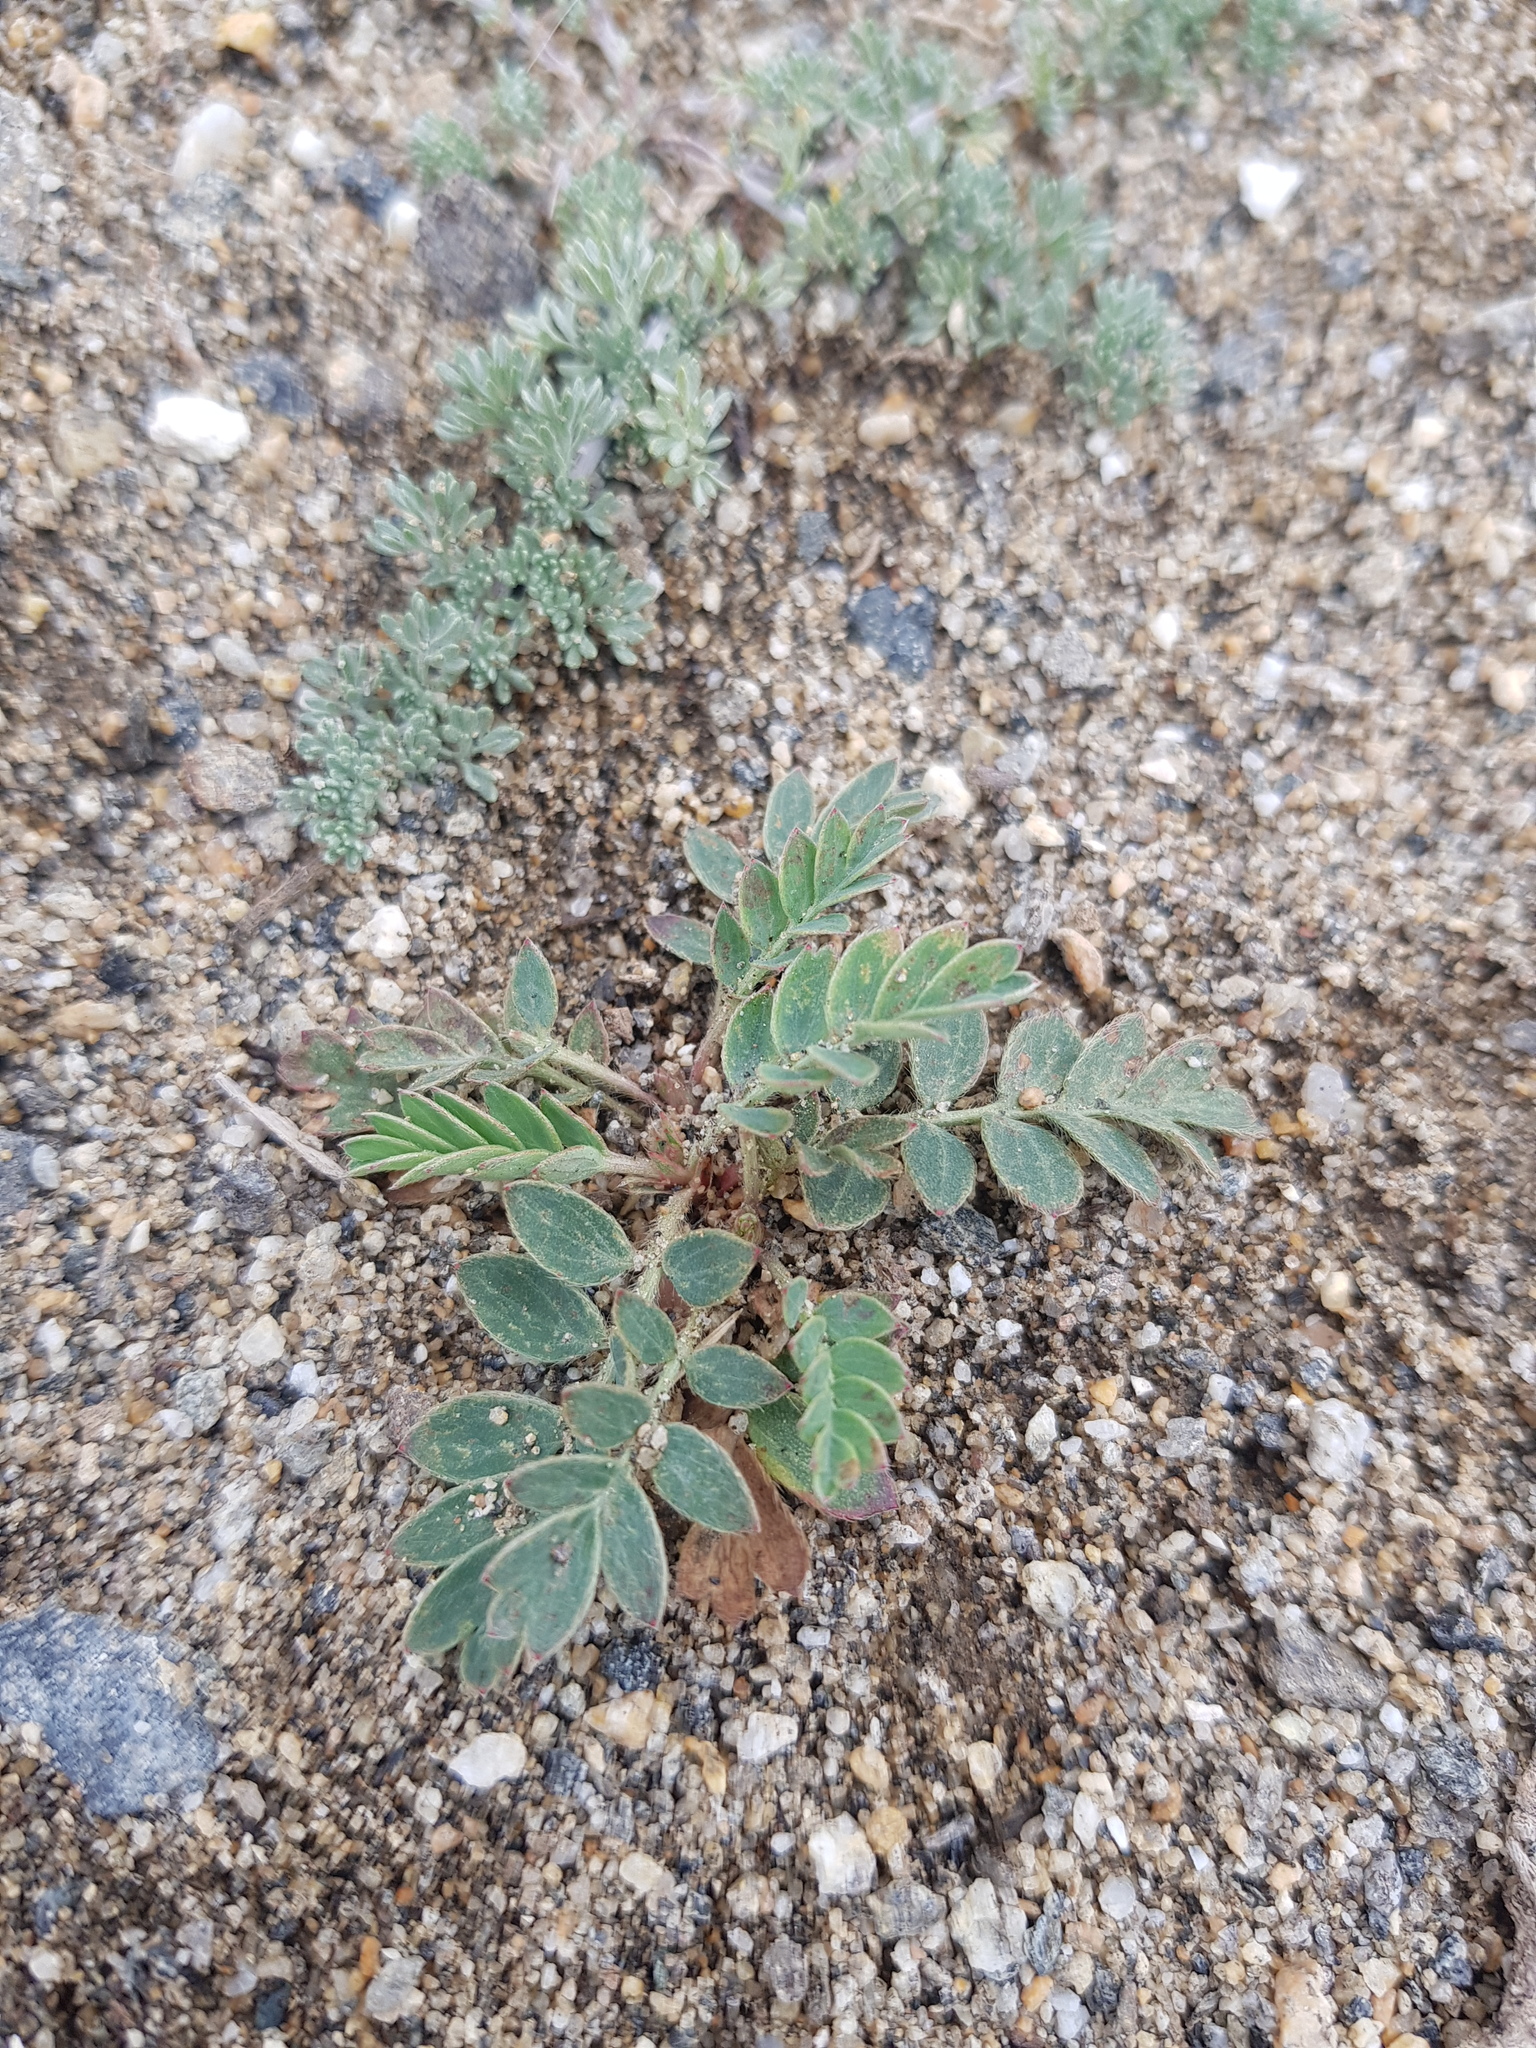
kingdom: Plantae
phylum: Tracheophyta
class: Magnoliopsida
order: Rosales
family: Rosaceae
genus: Sibbaldianthe
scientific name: Sibbaldianthe bifurca
